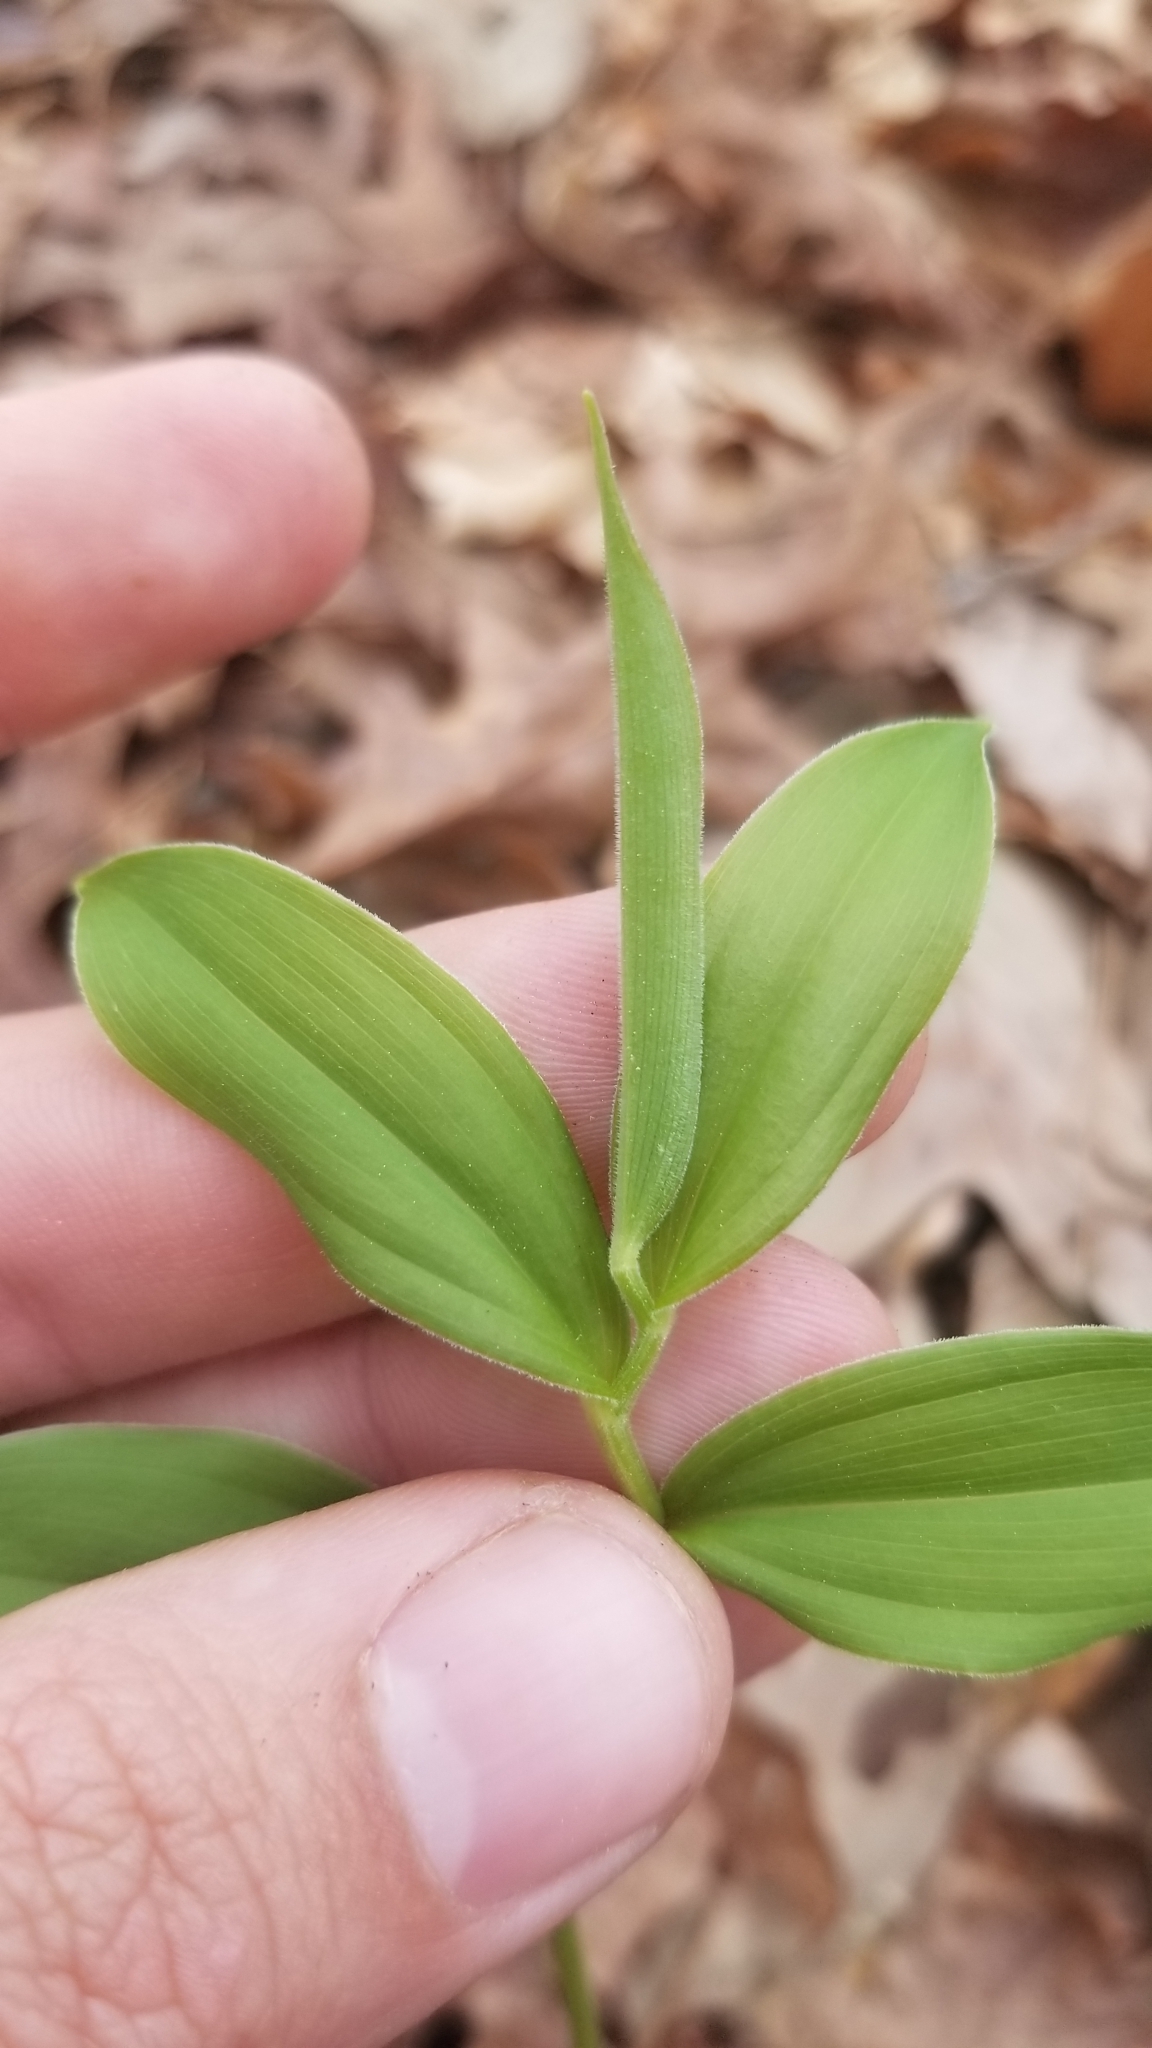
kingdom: Plantae
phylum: Tracheophyta
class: Liliopsida
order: Asparagales
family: Asparagaceae
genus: Maianthemum
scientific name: Maianthemum racemosum
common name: False spikenard
